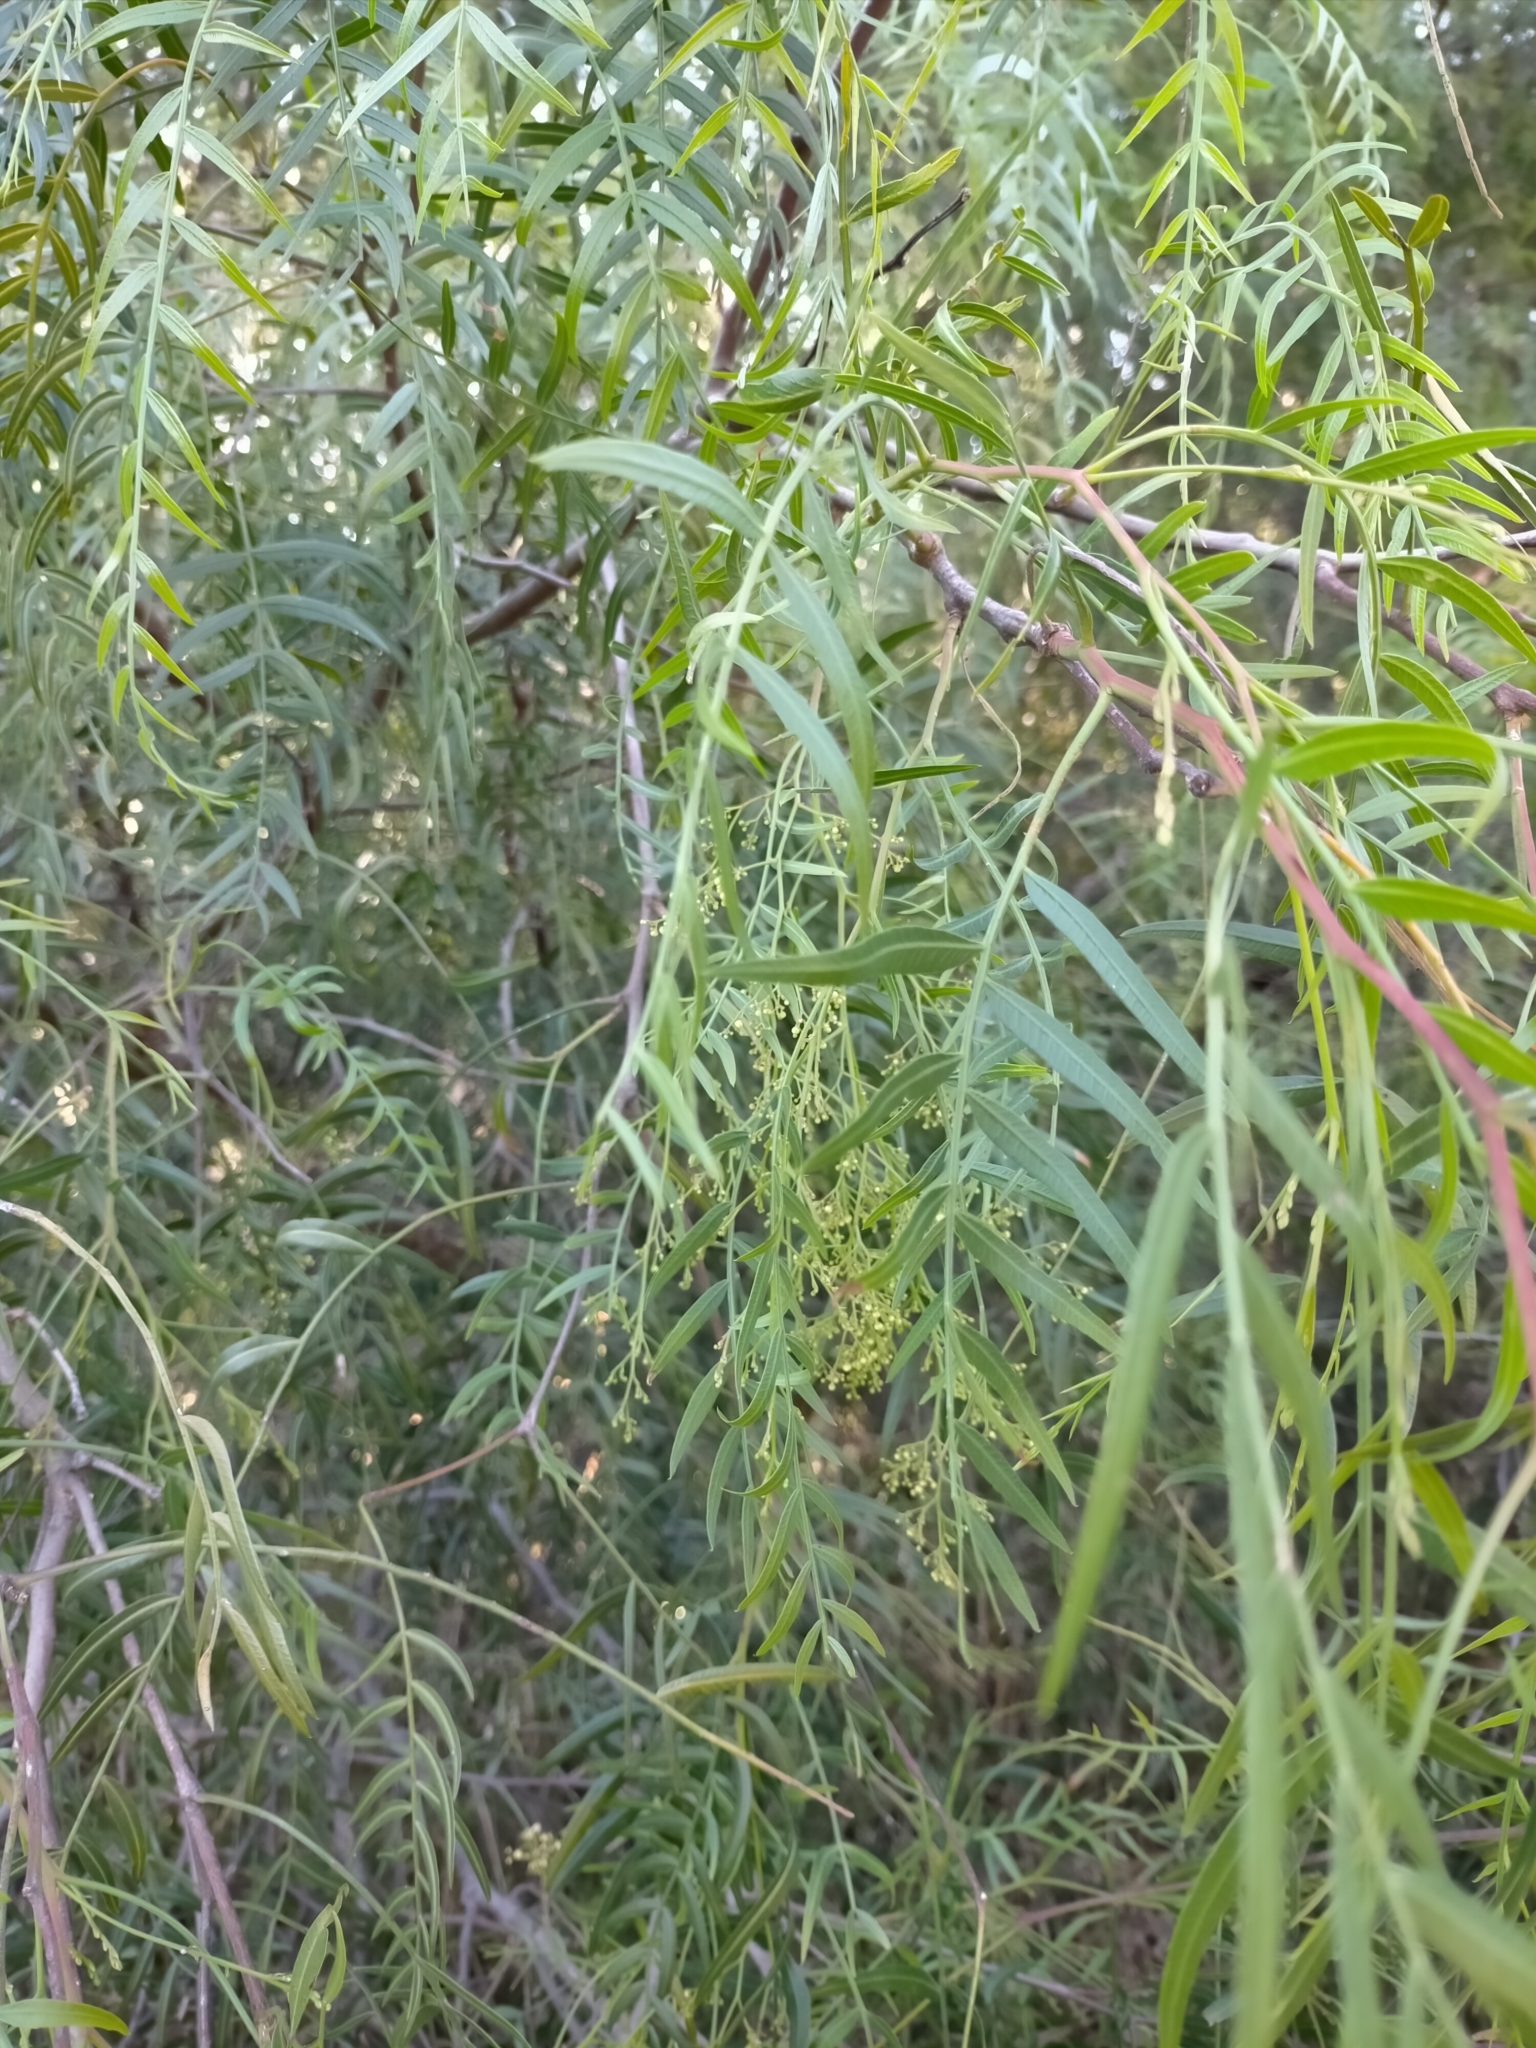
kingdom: Plantae
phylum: Tracheophyta
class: Magnoliopsida
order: Sapindales
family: Anacardiaceae
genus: Schinus
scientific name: Schinus molle
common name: Peruvian peppertree
